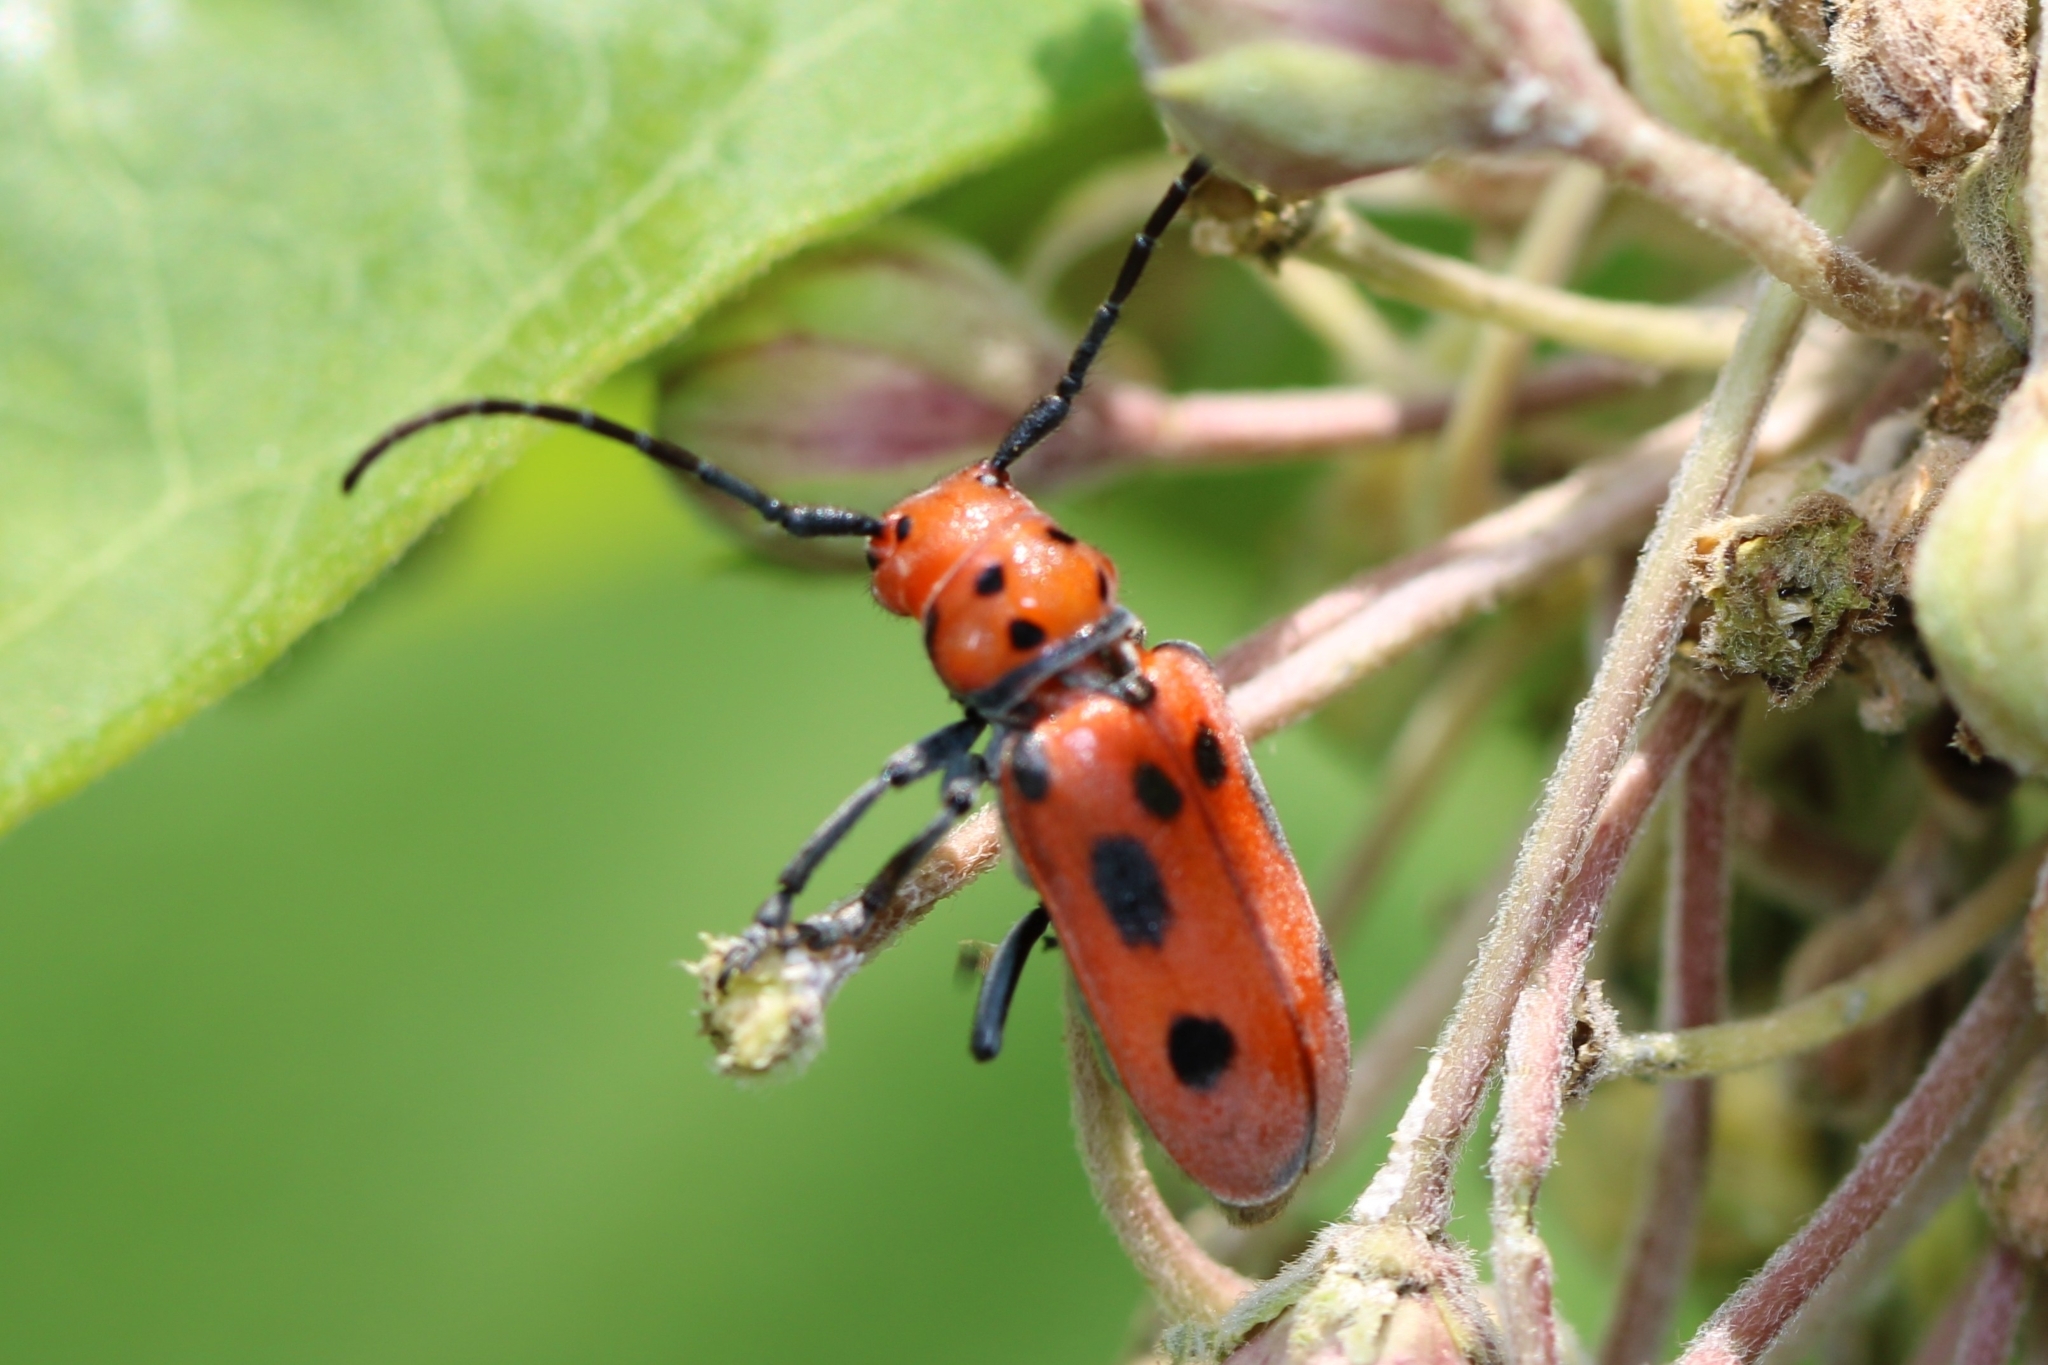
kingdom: Animalia
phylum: Arthropoda
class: Insecta
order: Coleoptera
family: Cerambycidae
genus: Tetraopes
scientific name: Tetraopes tetrophthalmus
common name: Red milkweed beetle
